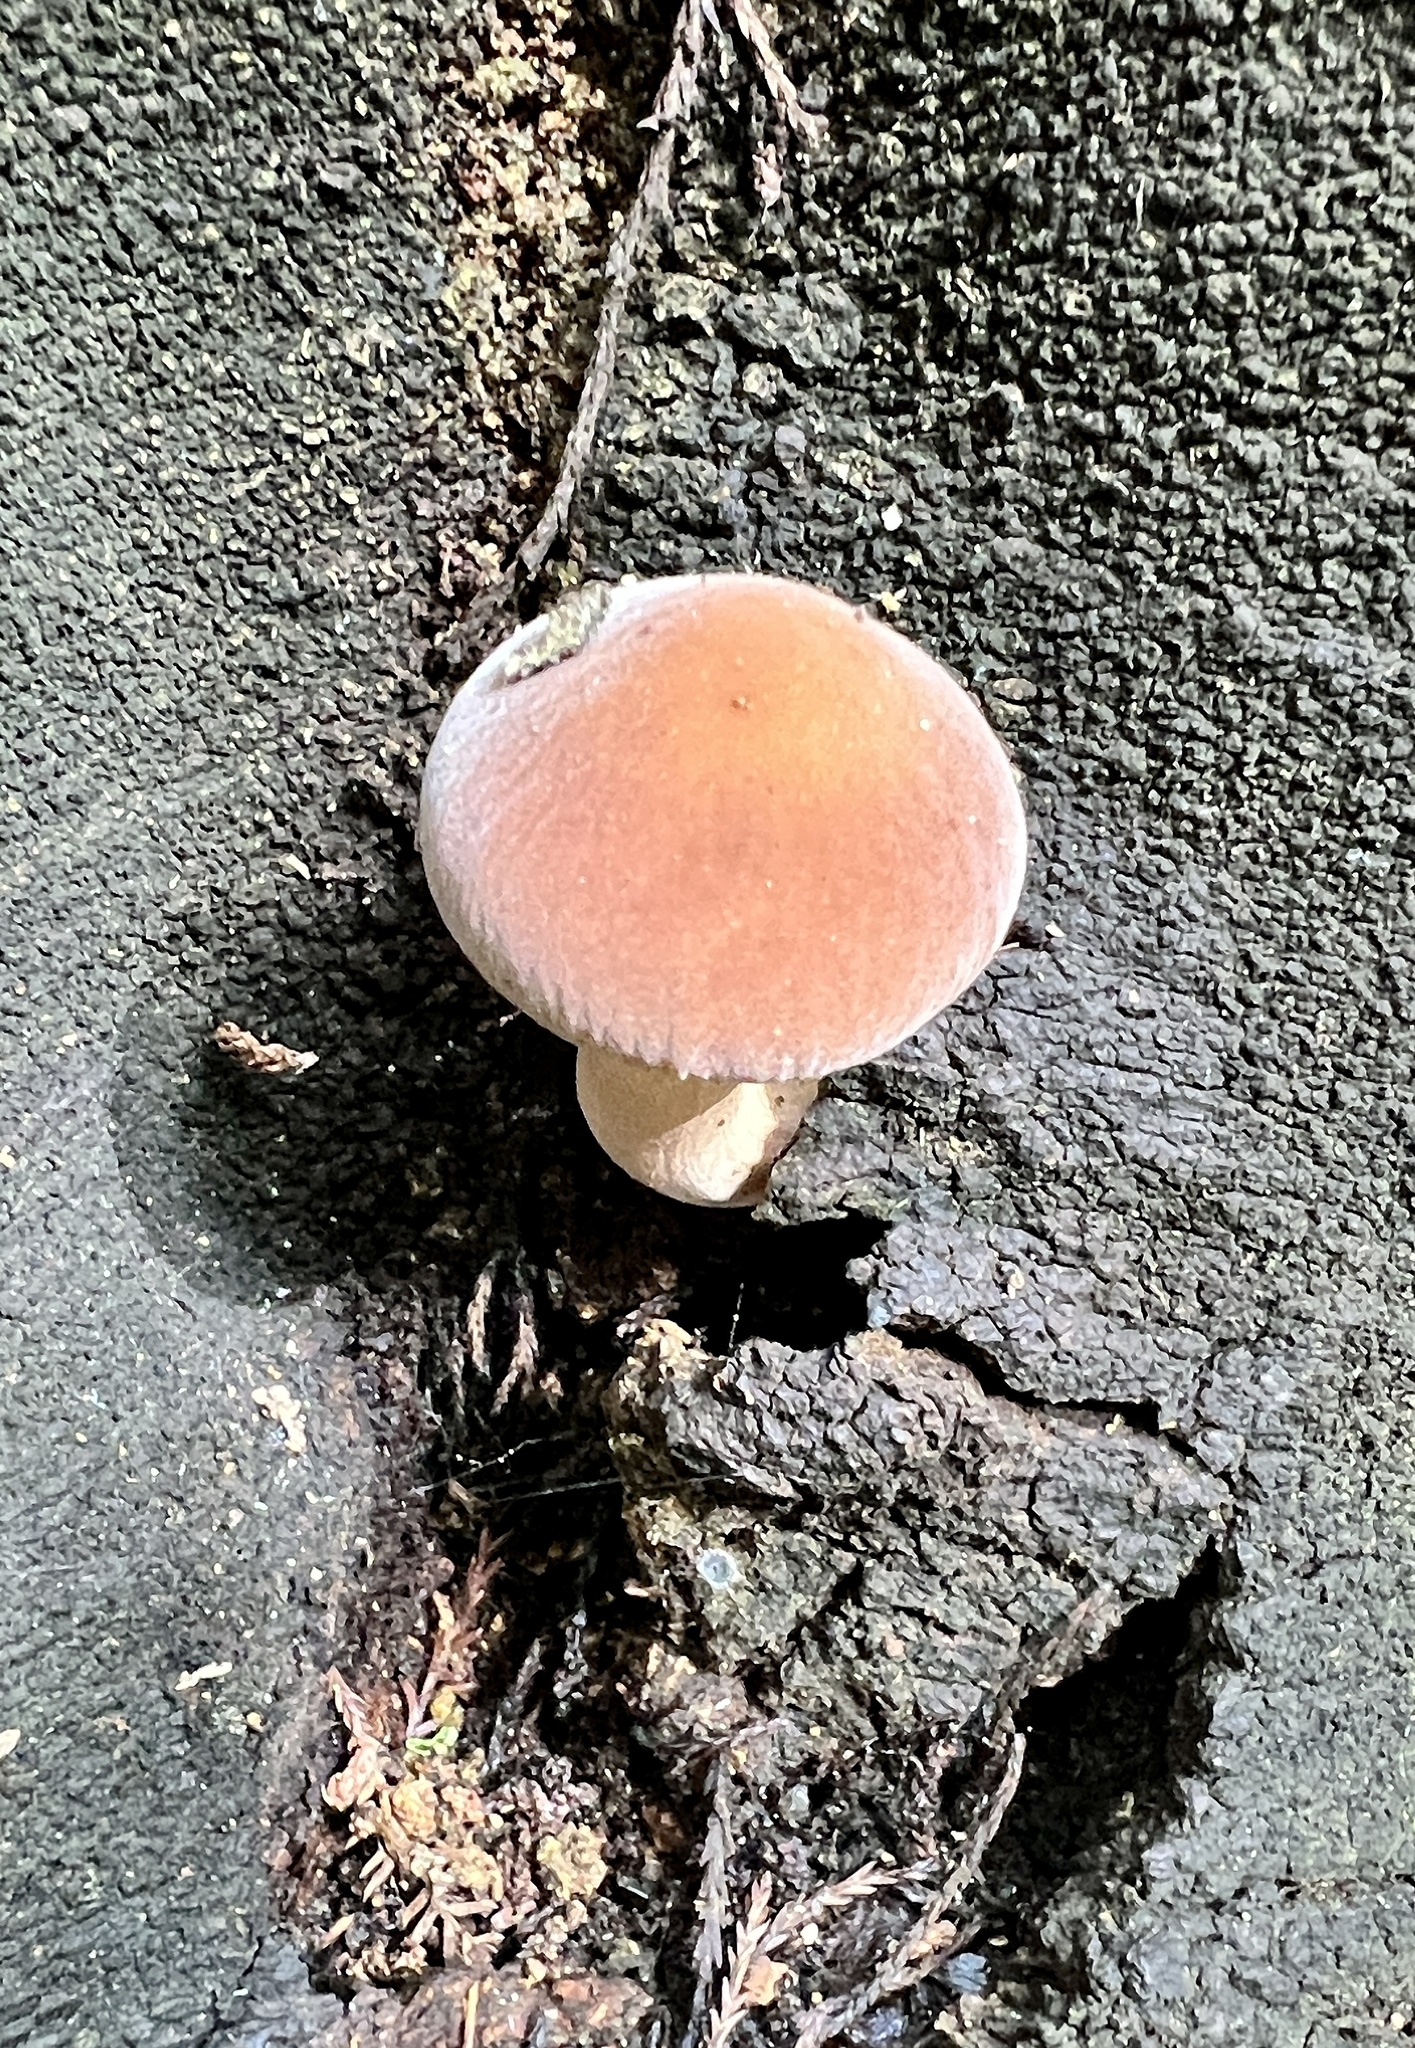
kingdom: Fungi
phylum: Basidiomycota
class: Agaricomycetes
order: Agaricales
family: Tubariaceae
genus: Cyclocybe
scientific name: Cyclocybe parasitica
